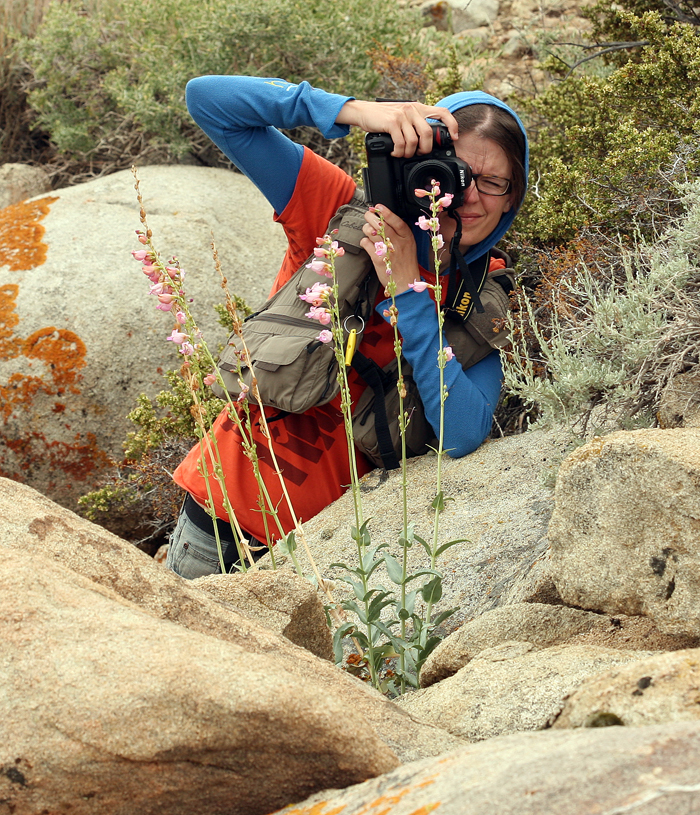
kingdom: Plantae
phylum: Tracheophyta
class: Magnoliopsida
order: Lamiales
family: Plantaginaceae
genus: Penstemon
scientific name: Penstemon floridus
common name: Panamint penstemon
